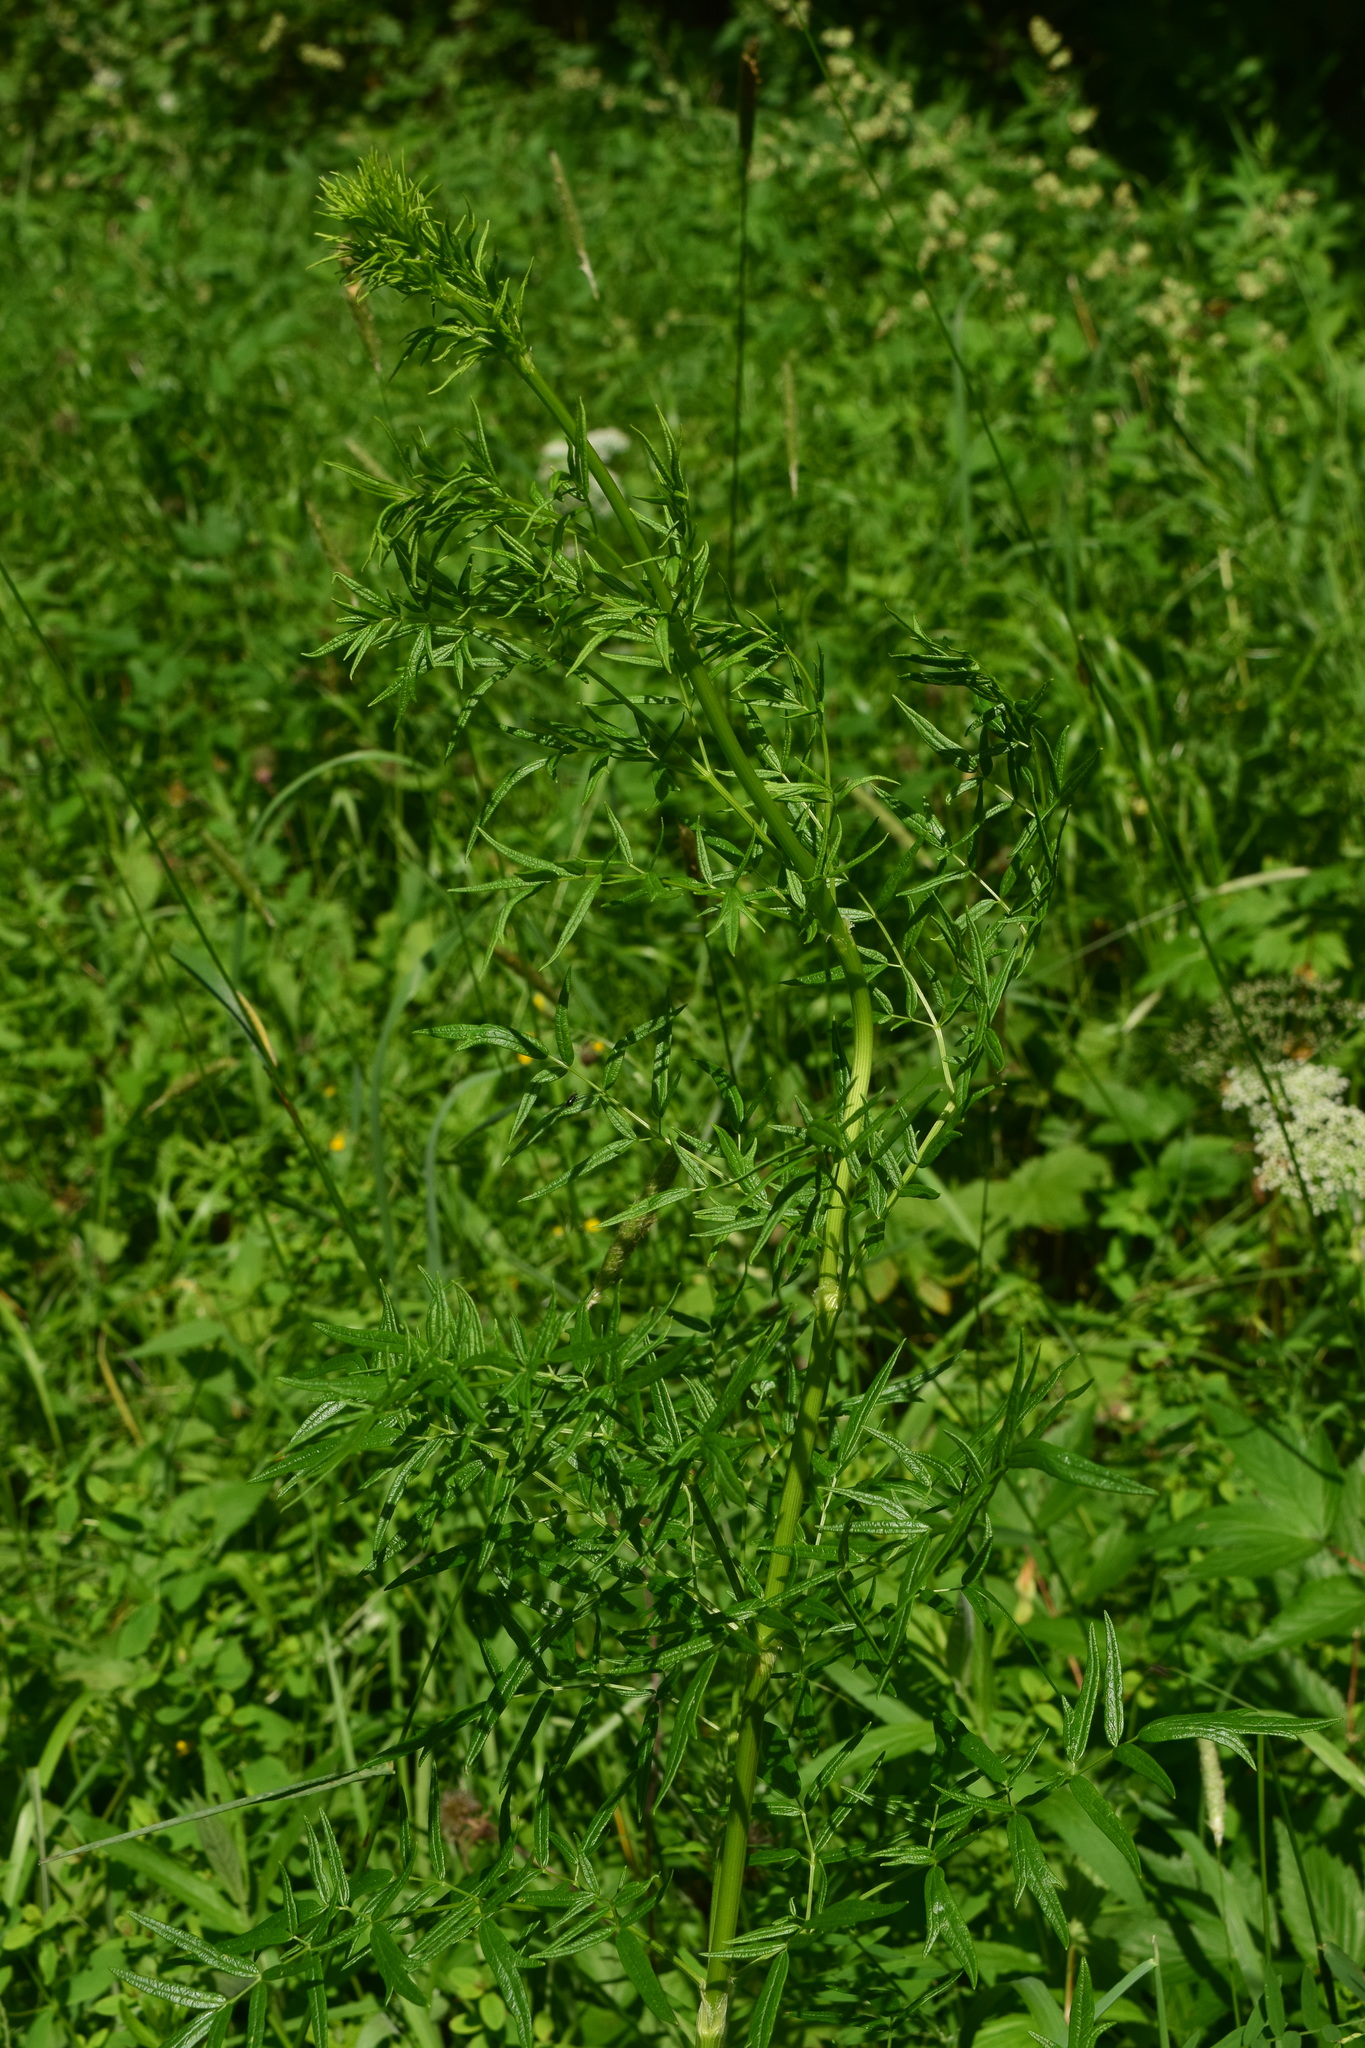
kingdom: Plantae
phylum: Tracheophyta
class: Magnoliopsida
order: Ranunculales
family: Ranunculaceae
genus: Thalictrum
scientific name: Thalictrum lucidum
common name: Shining meadow-rue
